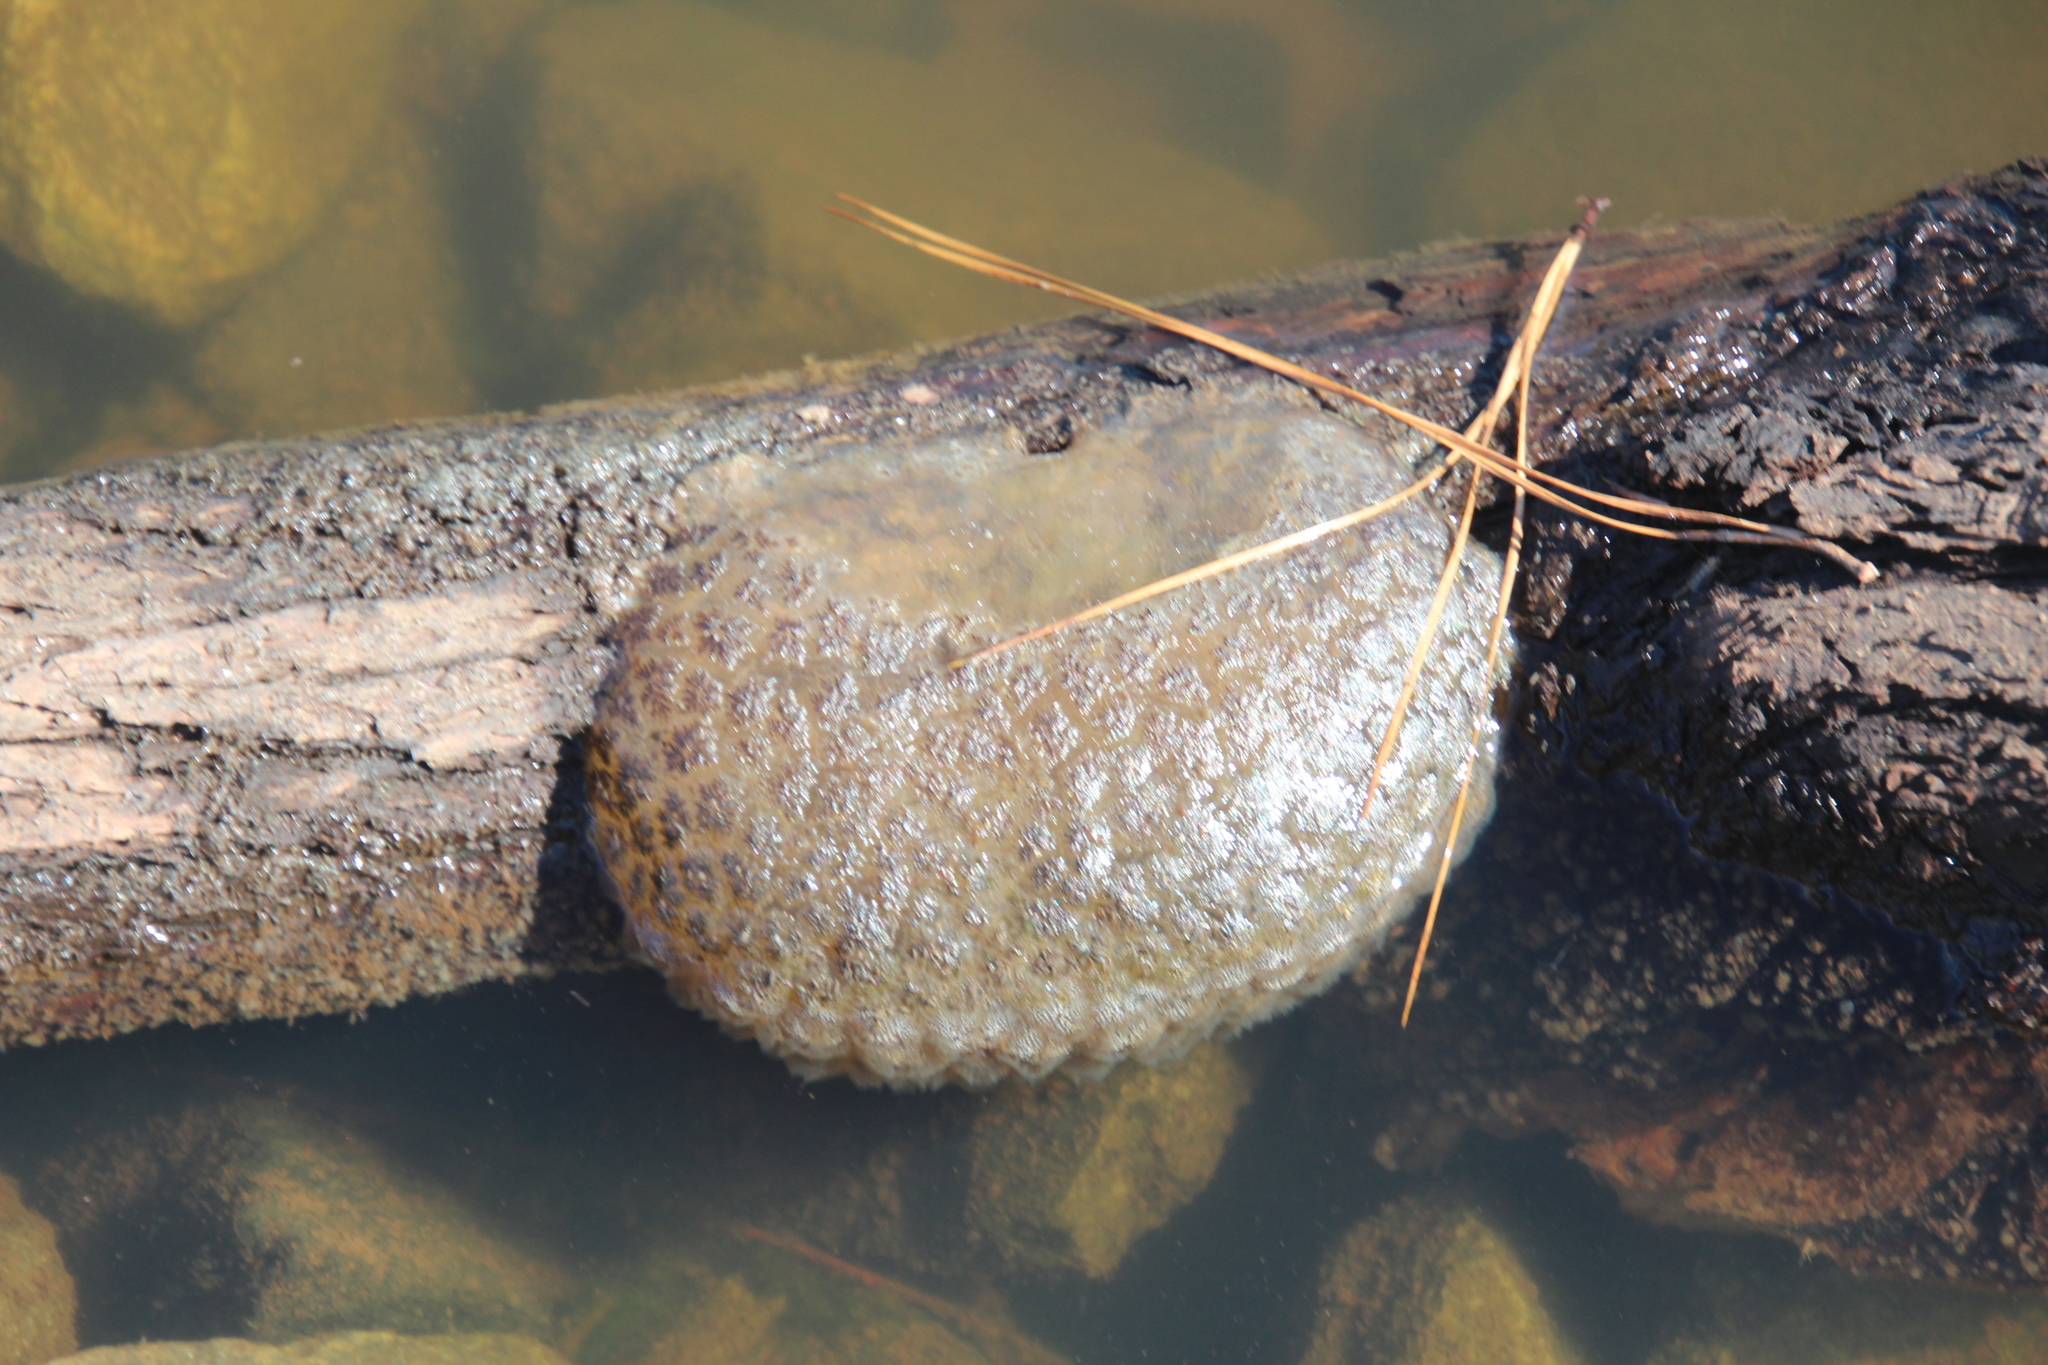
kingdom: Animalia
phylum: Bryozoa
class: Phylactolaemata
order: Plumatellida
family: Pectinatellidae
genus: Pectinatella
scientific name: Pectinatella magnifica
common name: Magnificent bryozoan
